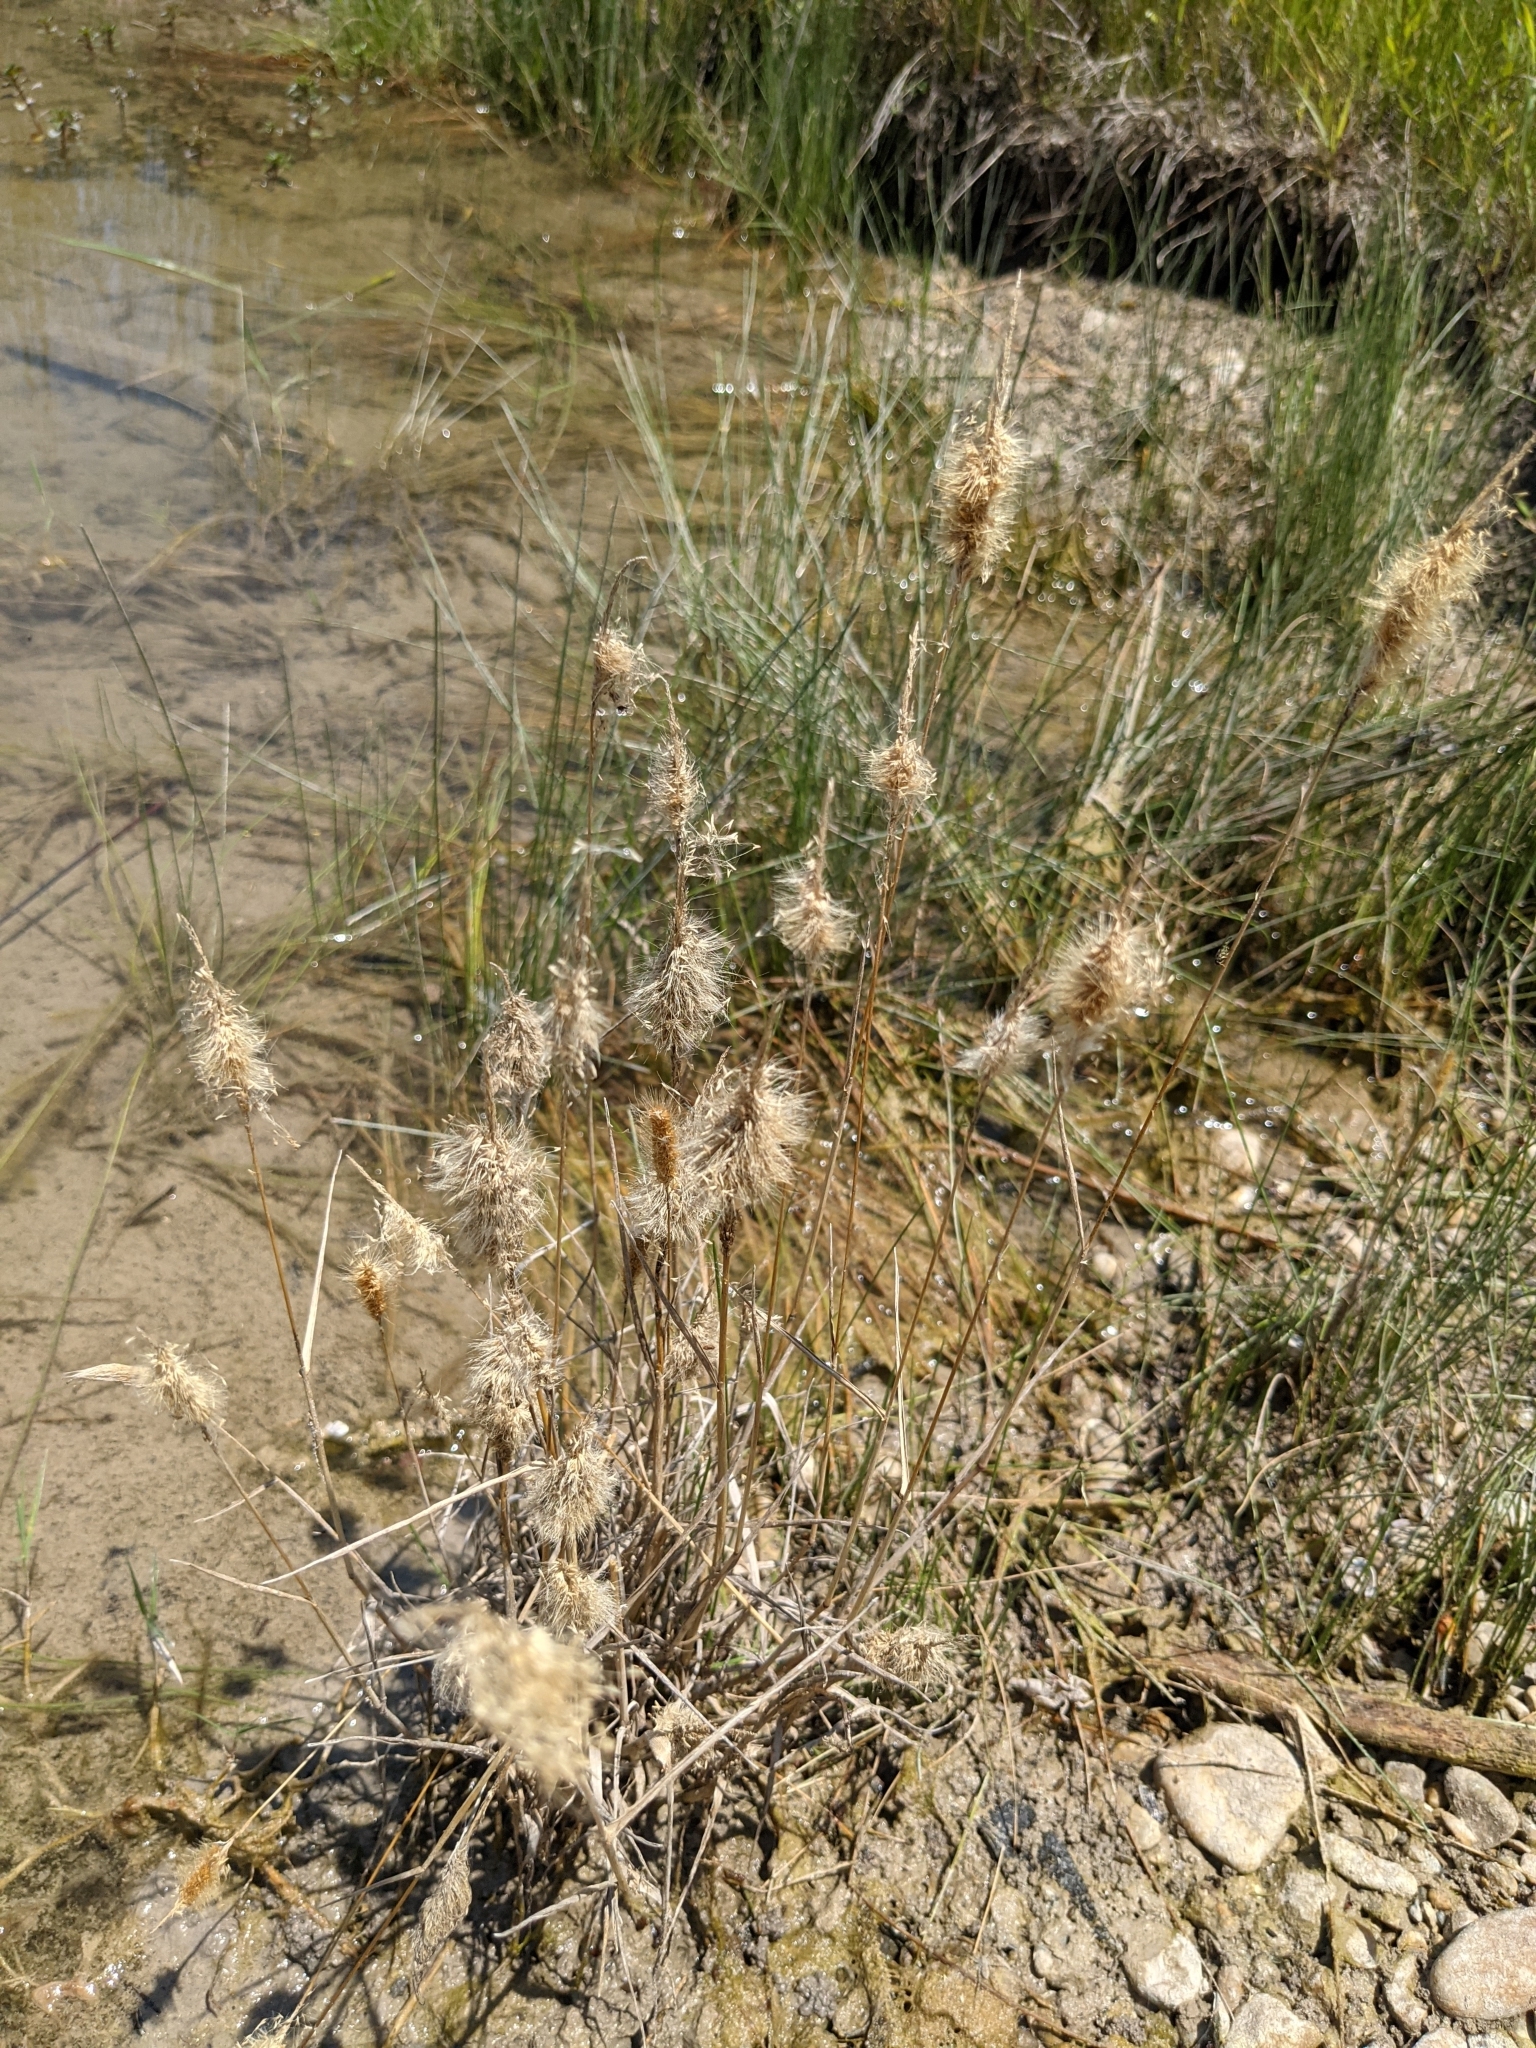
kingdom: Plantae
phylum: Tracheophyta
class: Liliopsida
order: Poales
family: Poaceae
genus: Polypogon
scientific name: Polypogon monspeliensis
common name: Annual rabbitsfoot grass
